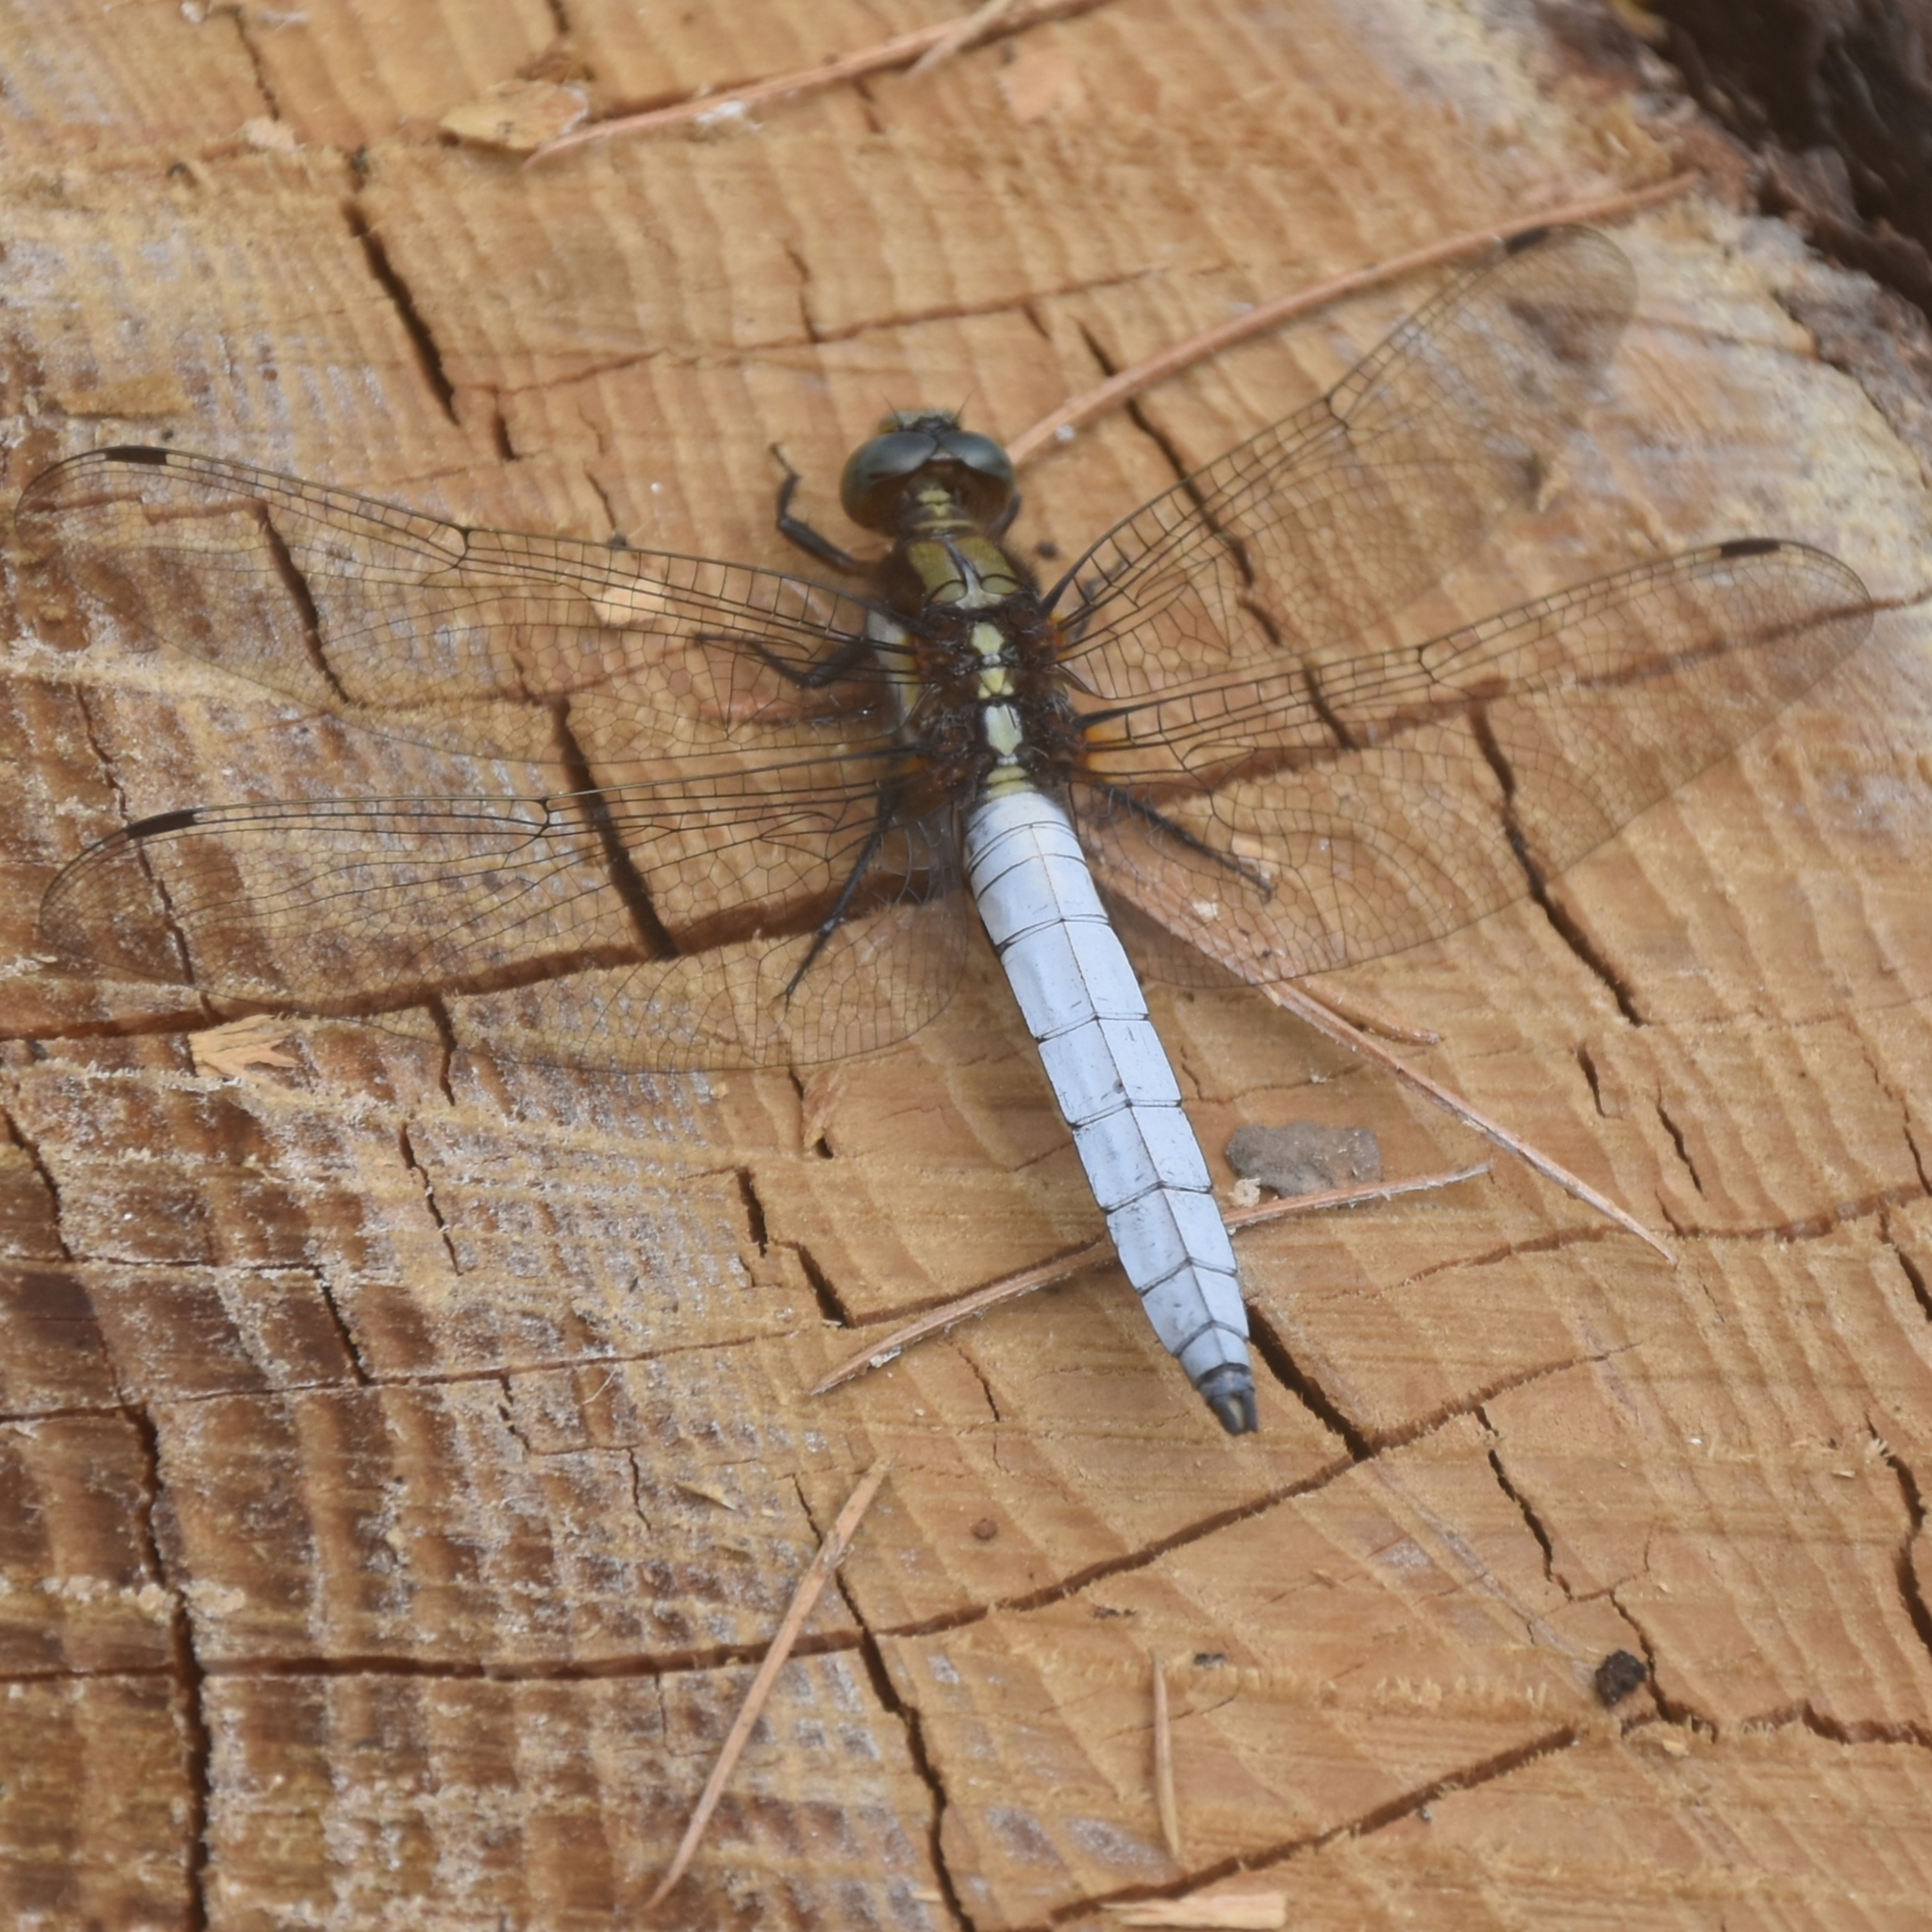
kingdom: Animalia
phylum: Arthropoda
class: Insecta
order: Odonata
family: Libellulidae
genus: Orthetrum
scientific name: Orthetrum internum
